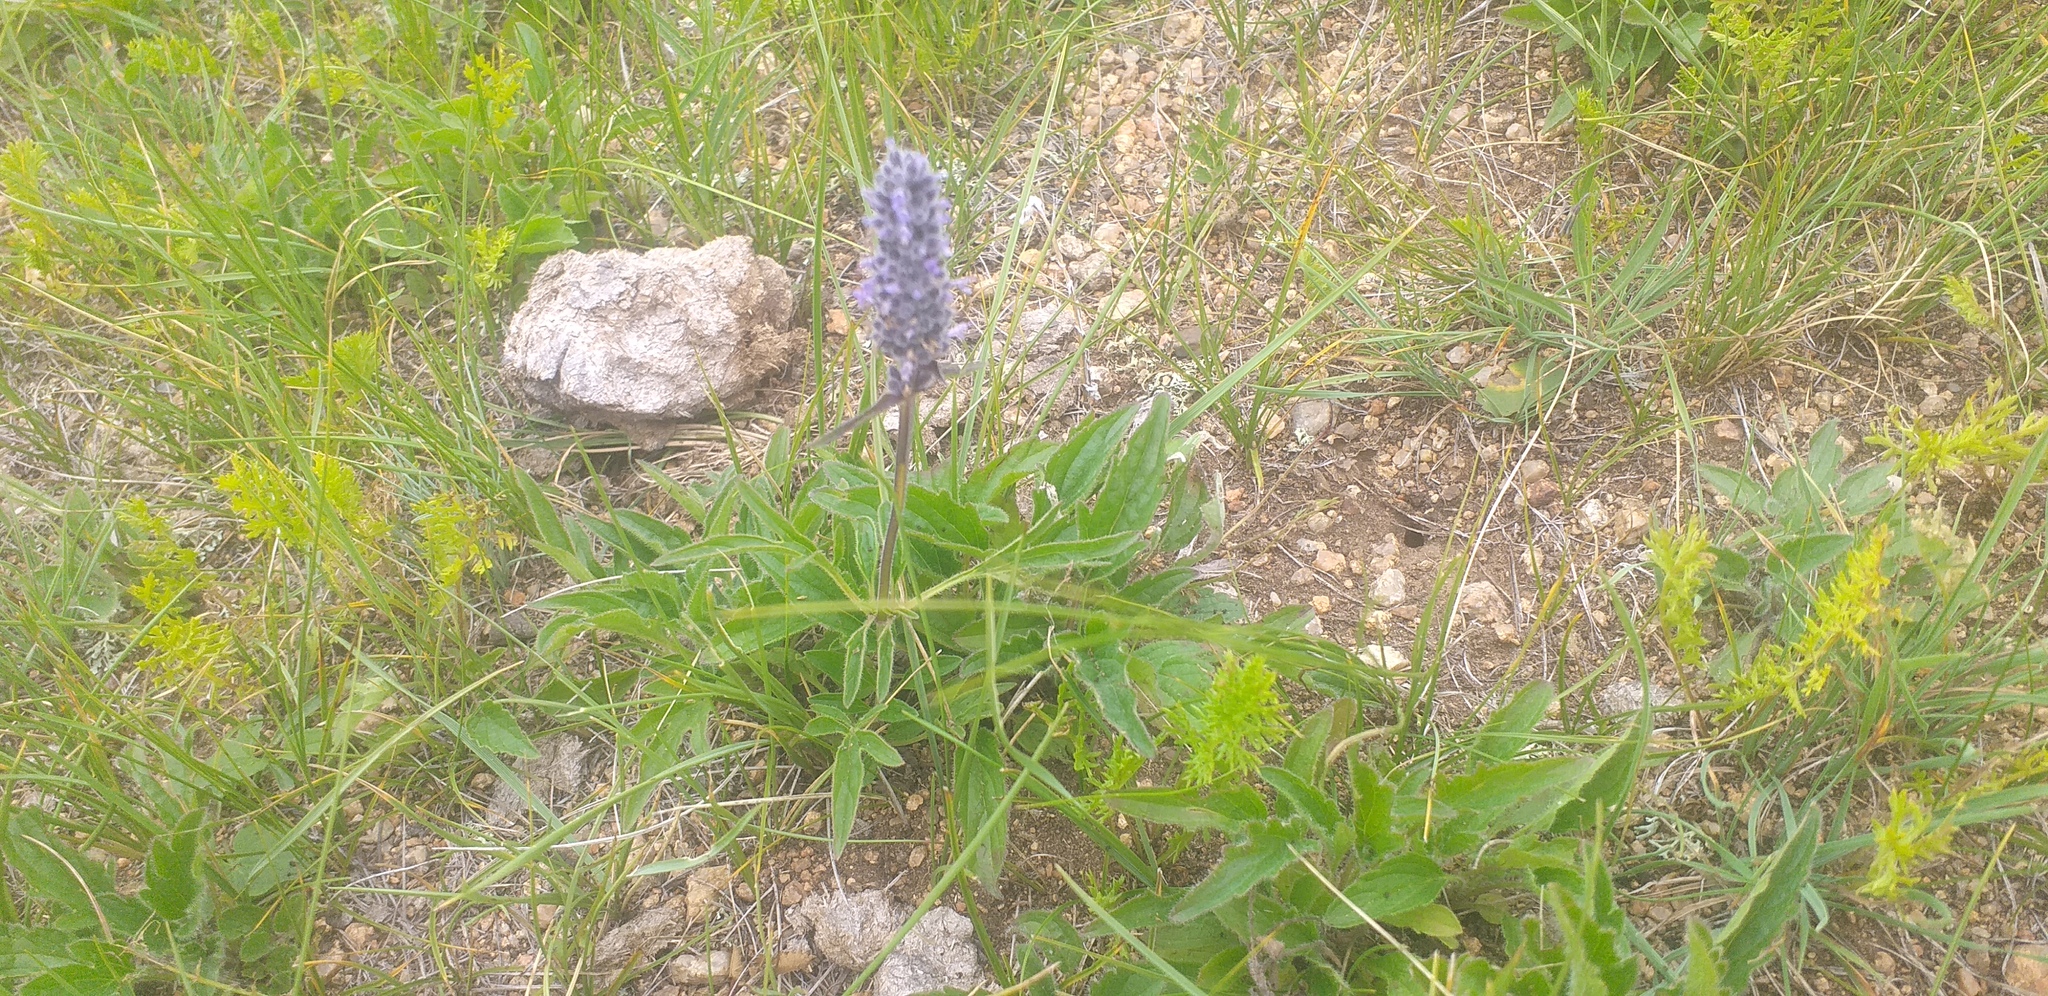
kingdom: Plantae
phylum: Tracheophyta
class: Magnoliopsida
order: Lamiales
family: Lamiaceae
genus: Nepeta
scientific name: Nepeta multifida
